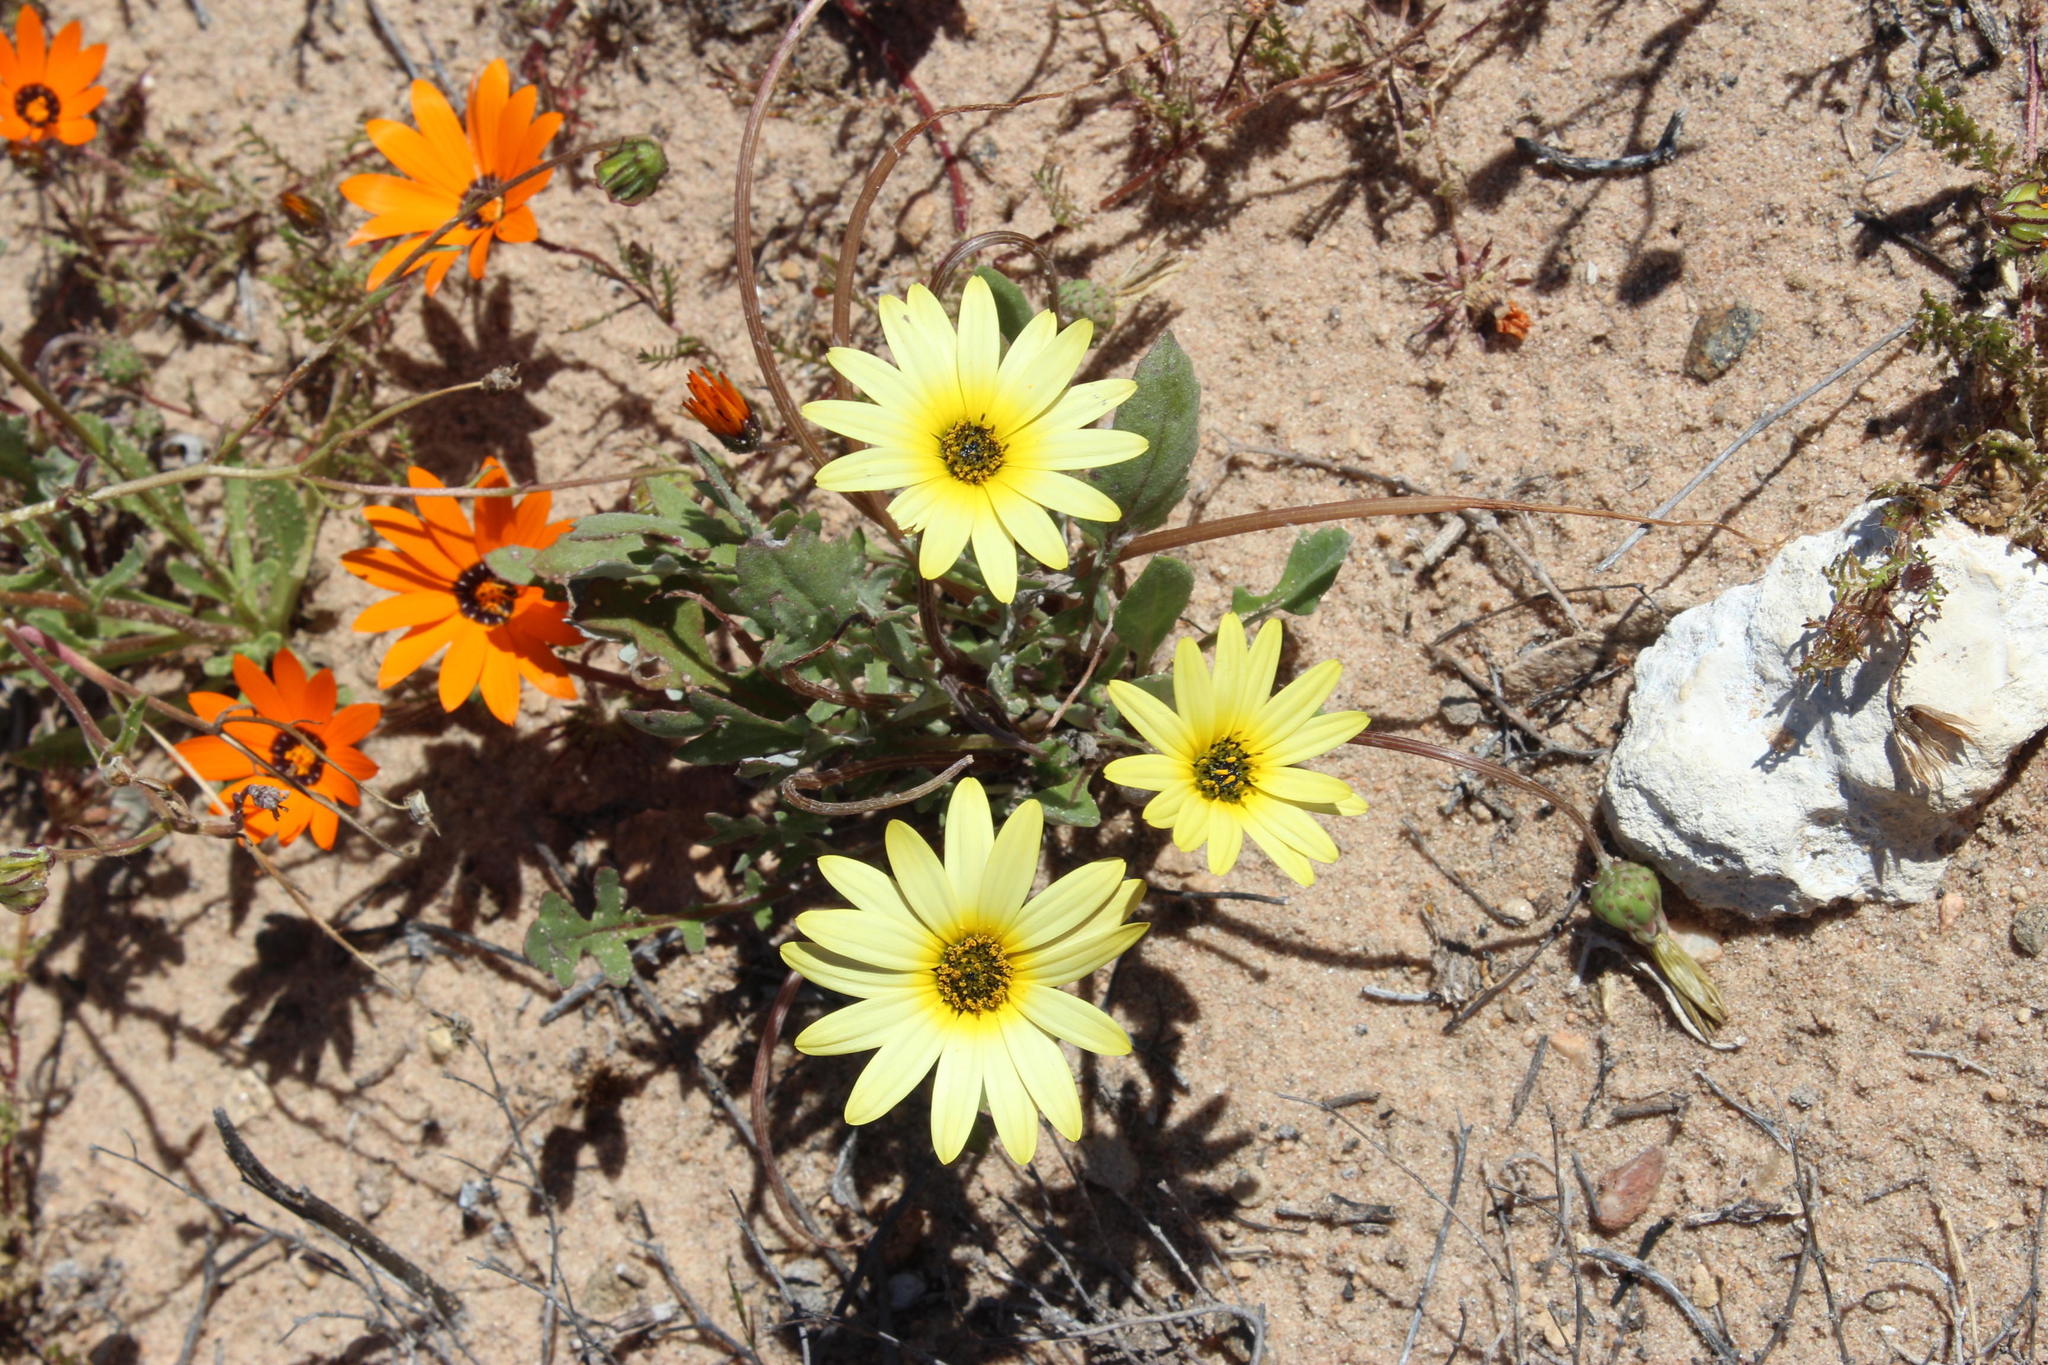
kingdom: Plantae
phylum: Tracheophyta
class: Magnoliopsida
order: Asterales
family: Asteraceae
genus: Arctotheca
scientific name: Arctotheca calendula
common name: Capeweed
